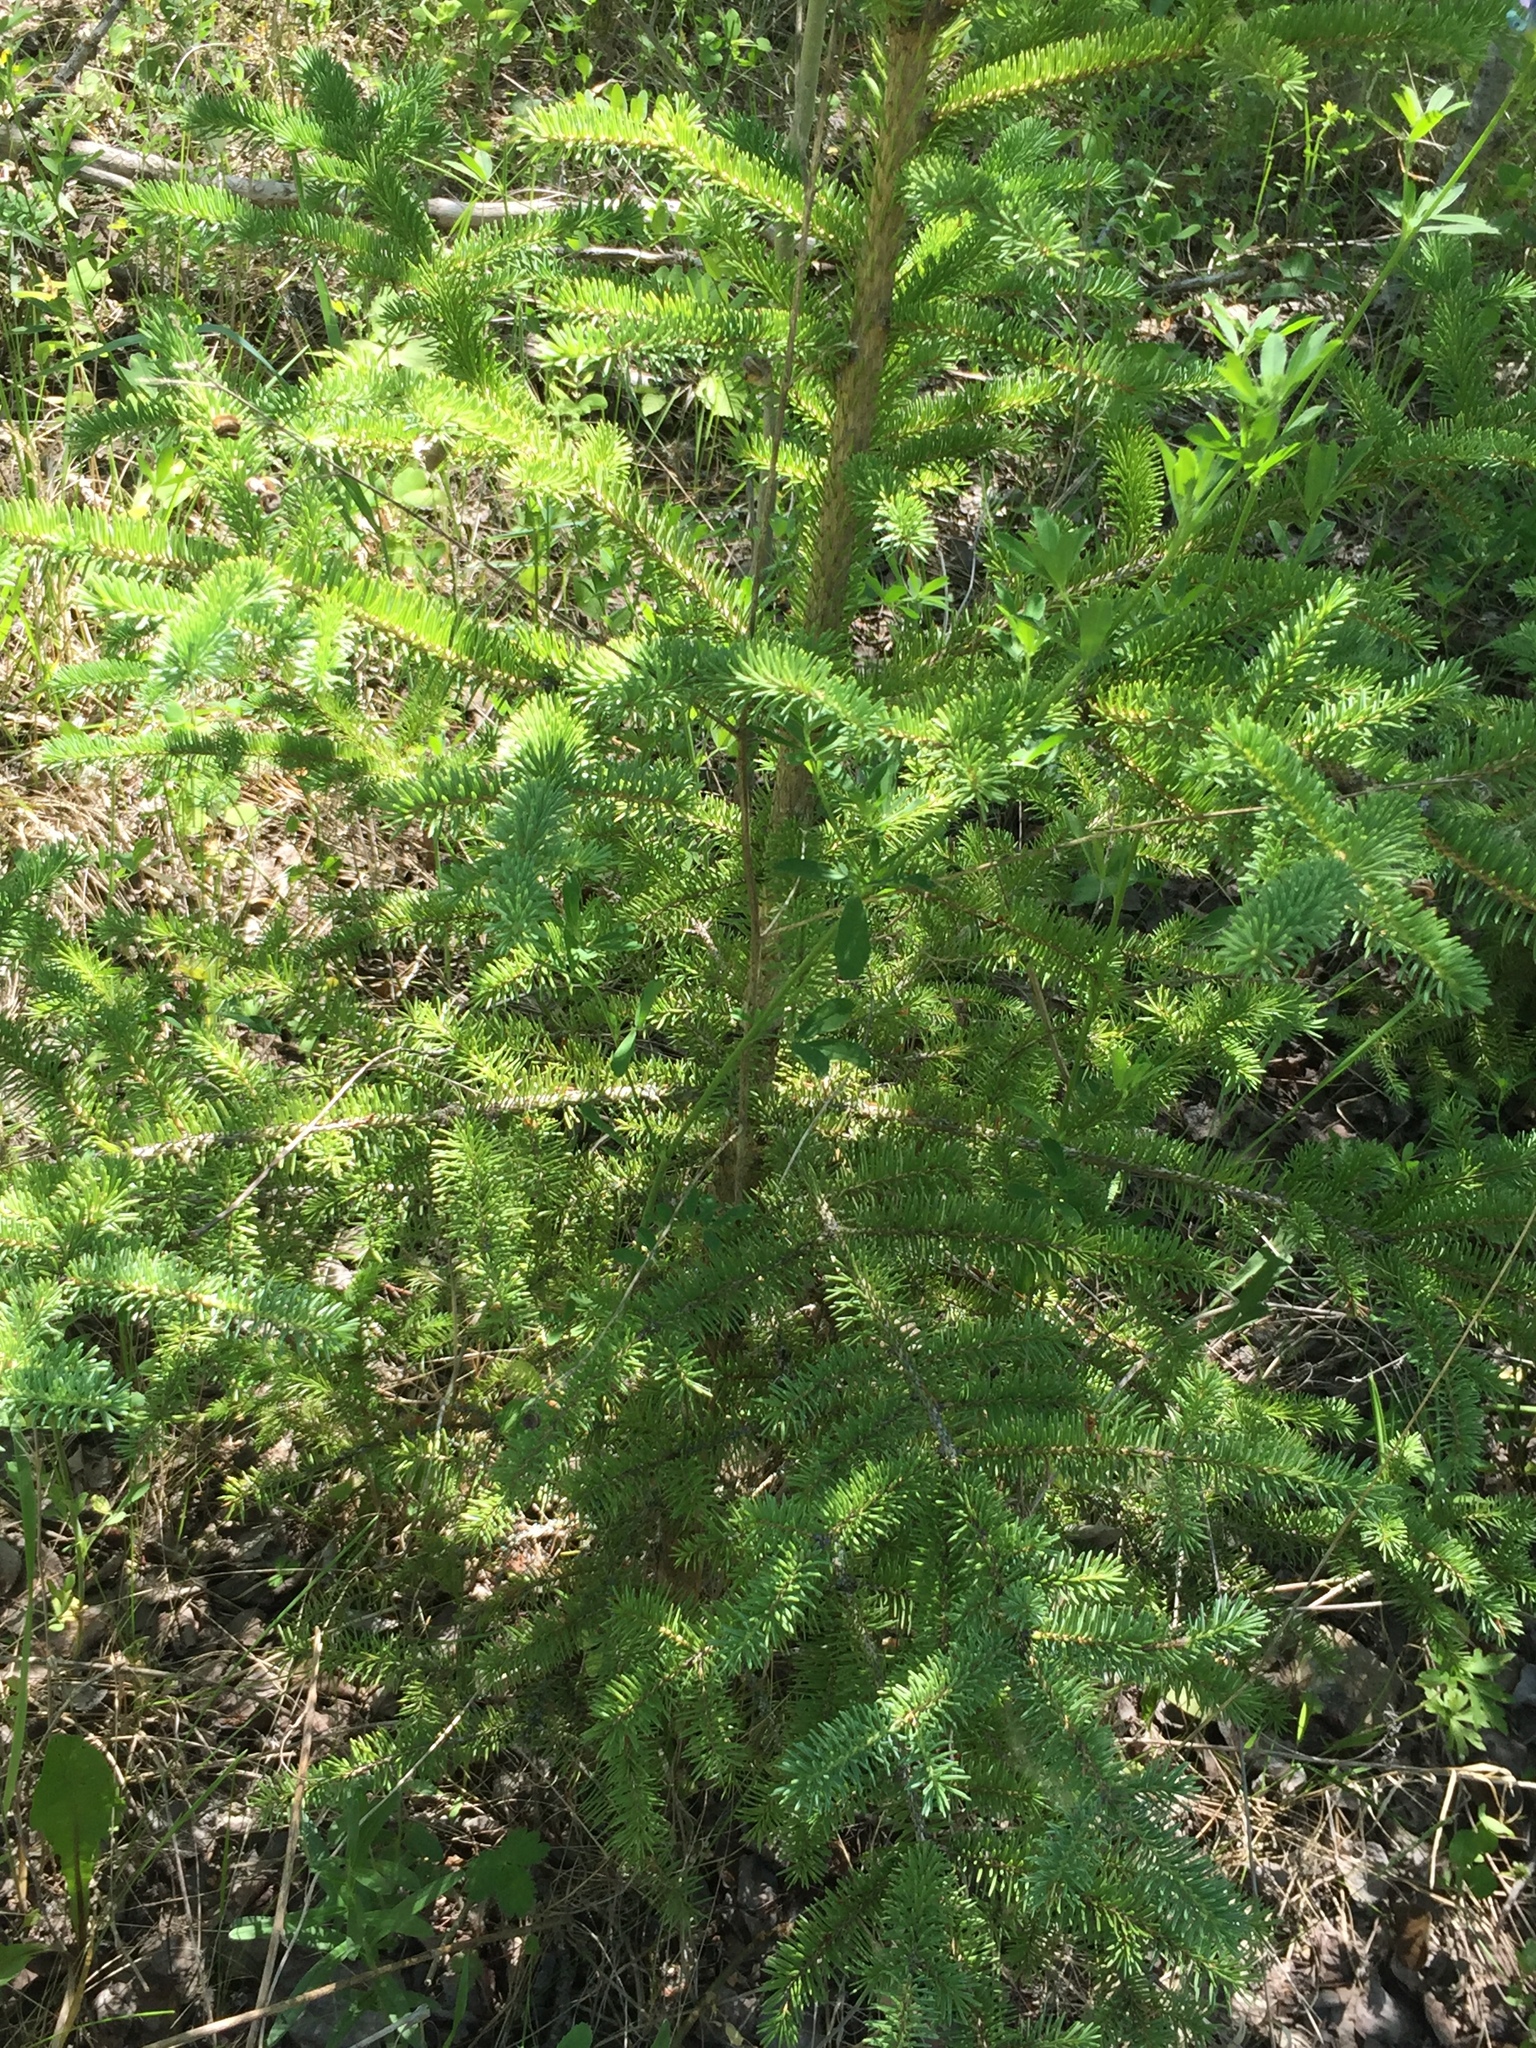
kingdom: Plantae
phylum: Tracheophyta
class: Pinopsida
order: Pinales
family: Pinaceae
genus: Picea
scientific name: Picea glauca
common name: White spruce
